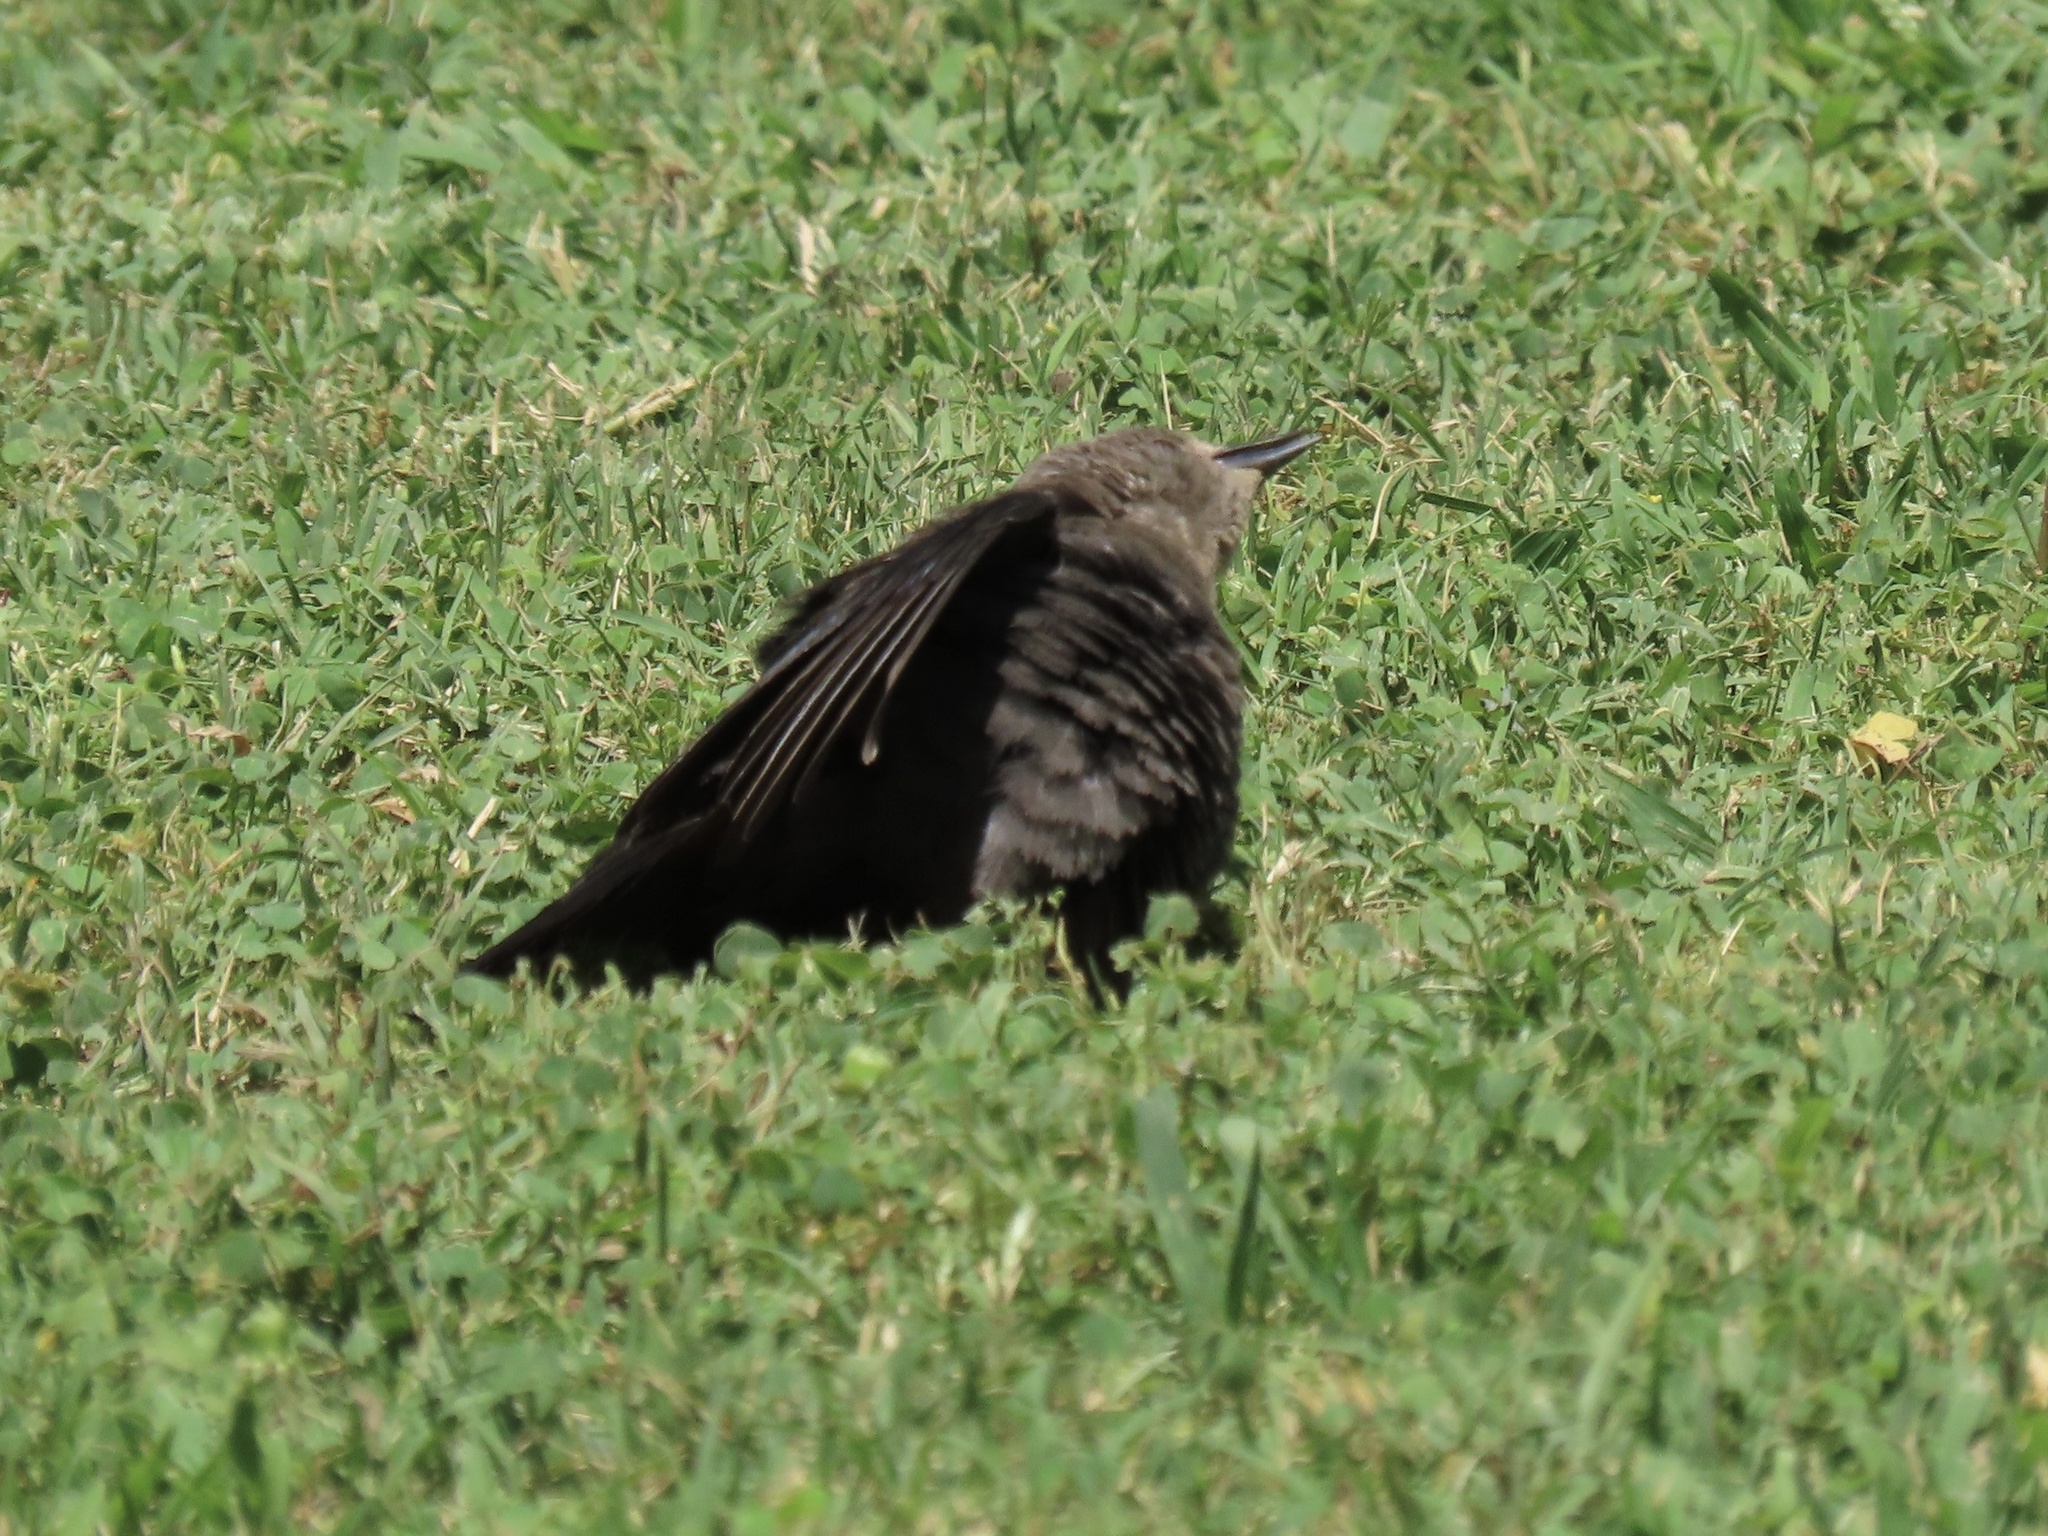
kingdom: Animalia
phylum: Chordata
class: Aves
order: Passeriformes
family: Icteridae
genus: Euphagus
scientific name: Euphagus cyanocephalus
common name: Brewer's blackbird
